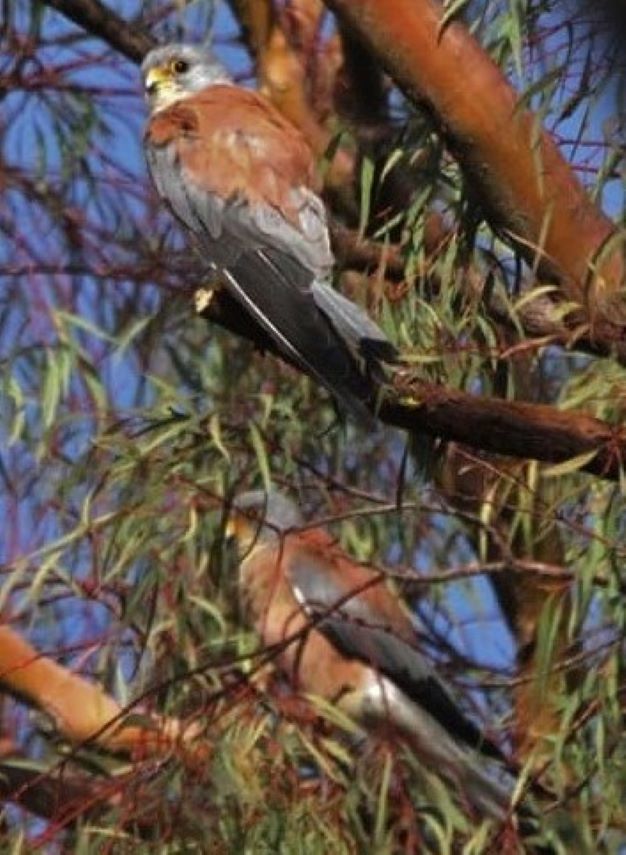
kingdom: Animalia
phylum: Chordata
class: Aves
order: Falconiformes
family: Falconidae
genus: Falco
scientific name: Falco naumanni
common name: Lesser kestrel
